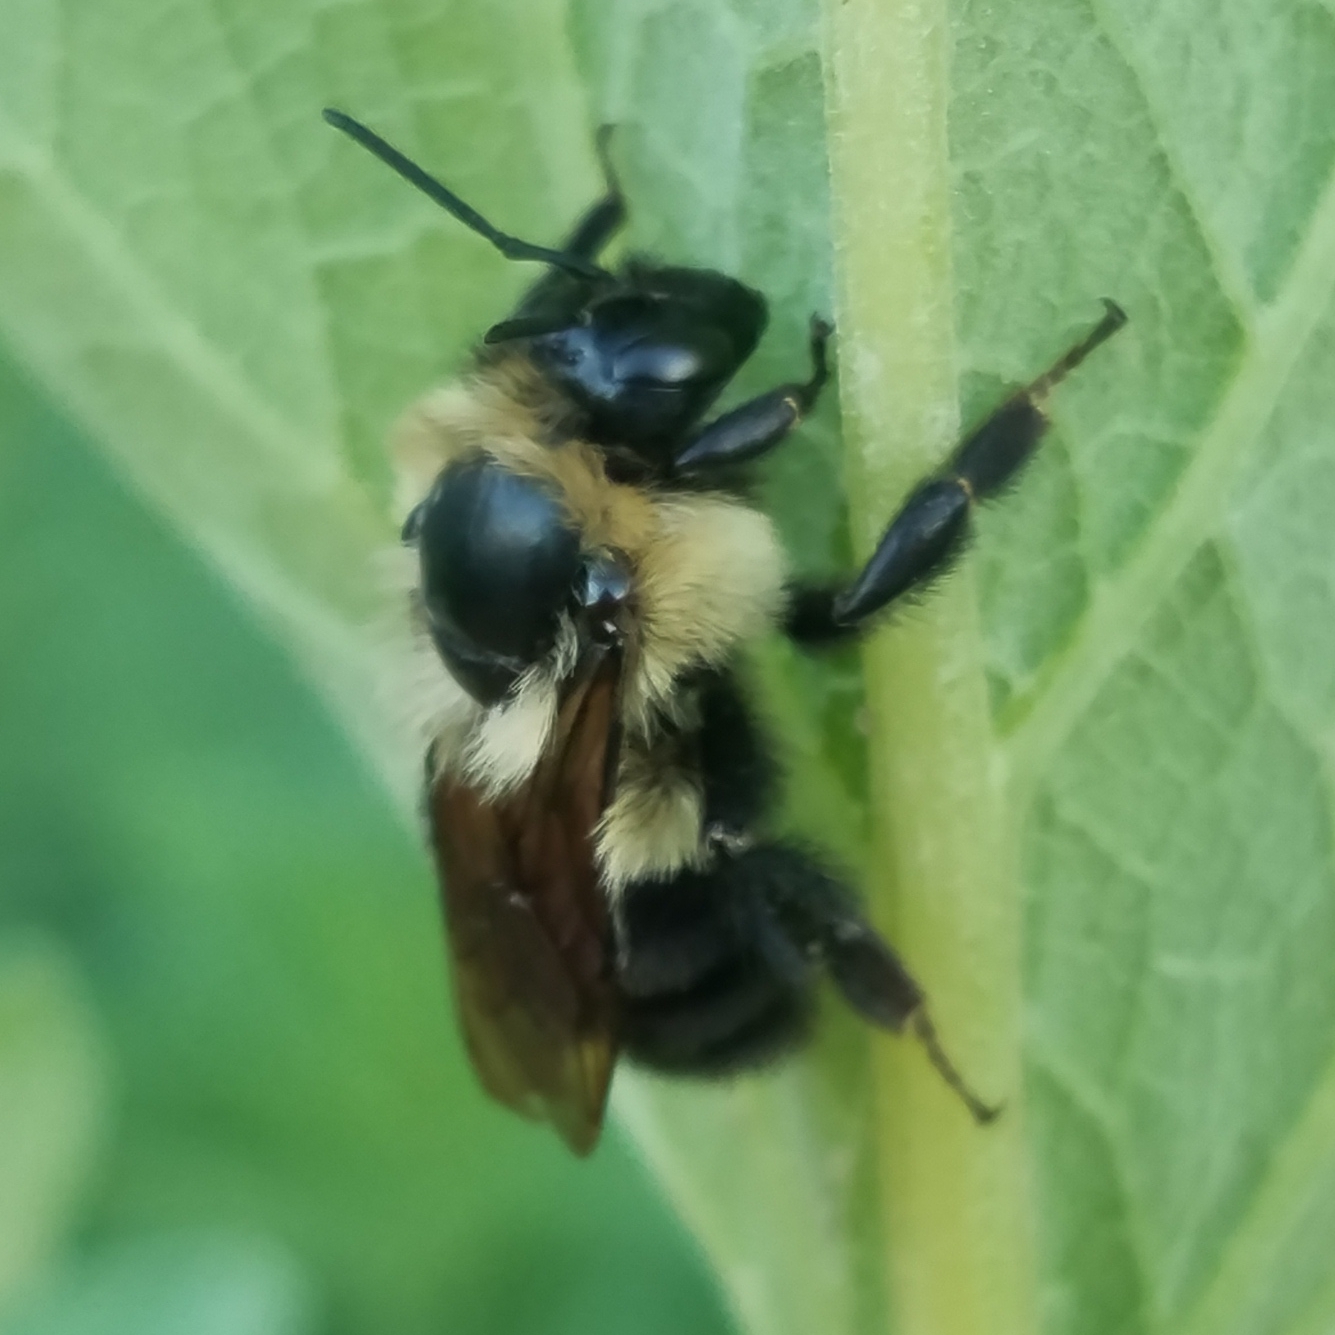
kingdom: Animalia
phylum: Arthropoda
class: Insecta
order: Hymenoptera
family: Apidae
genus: Bombus
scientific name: Bombus bimaculatus
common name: Two-spotted bumble bee
